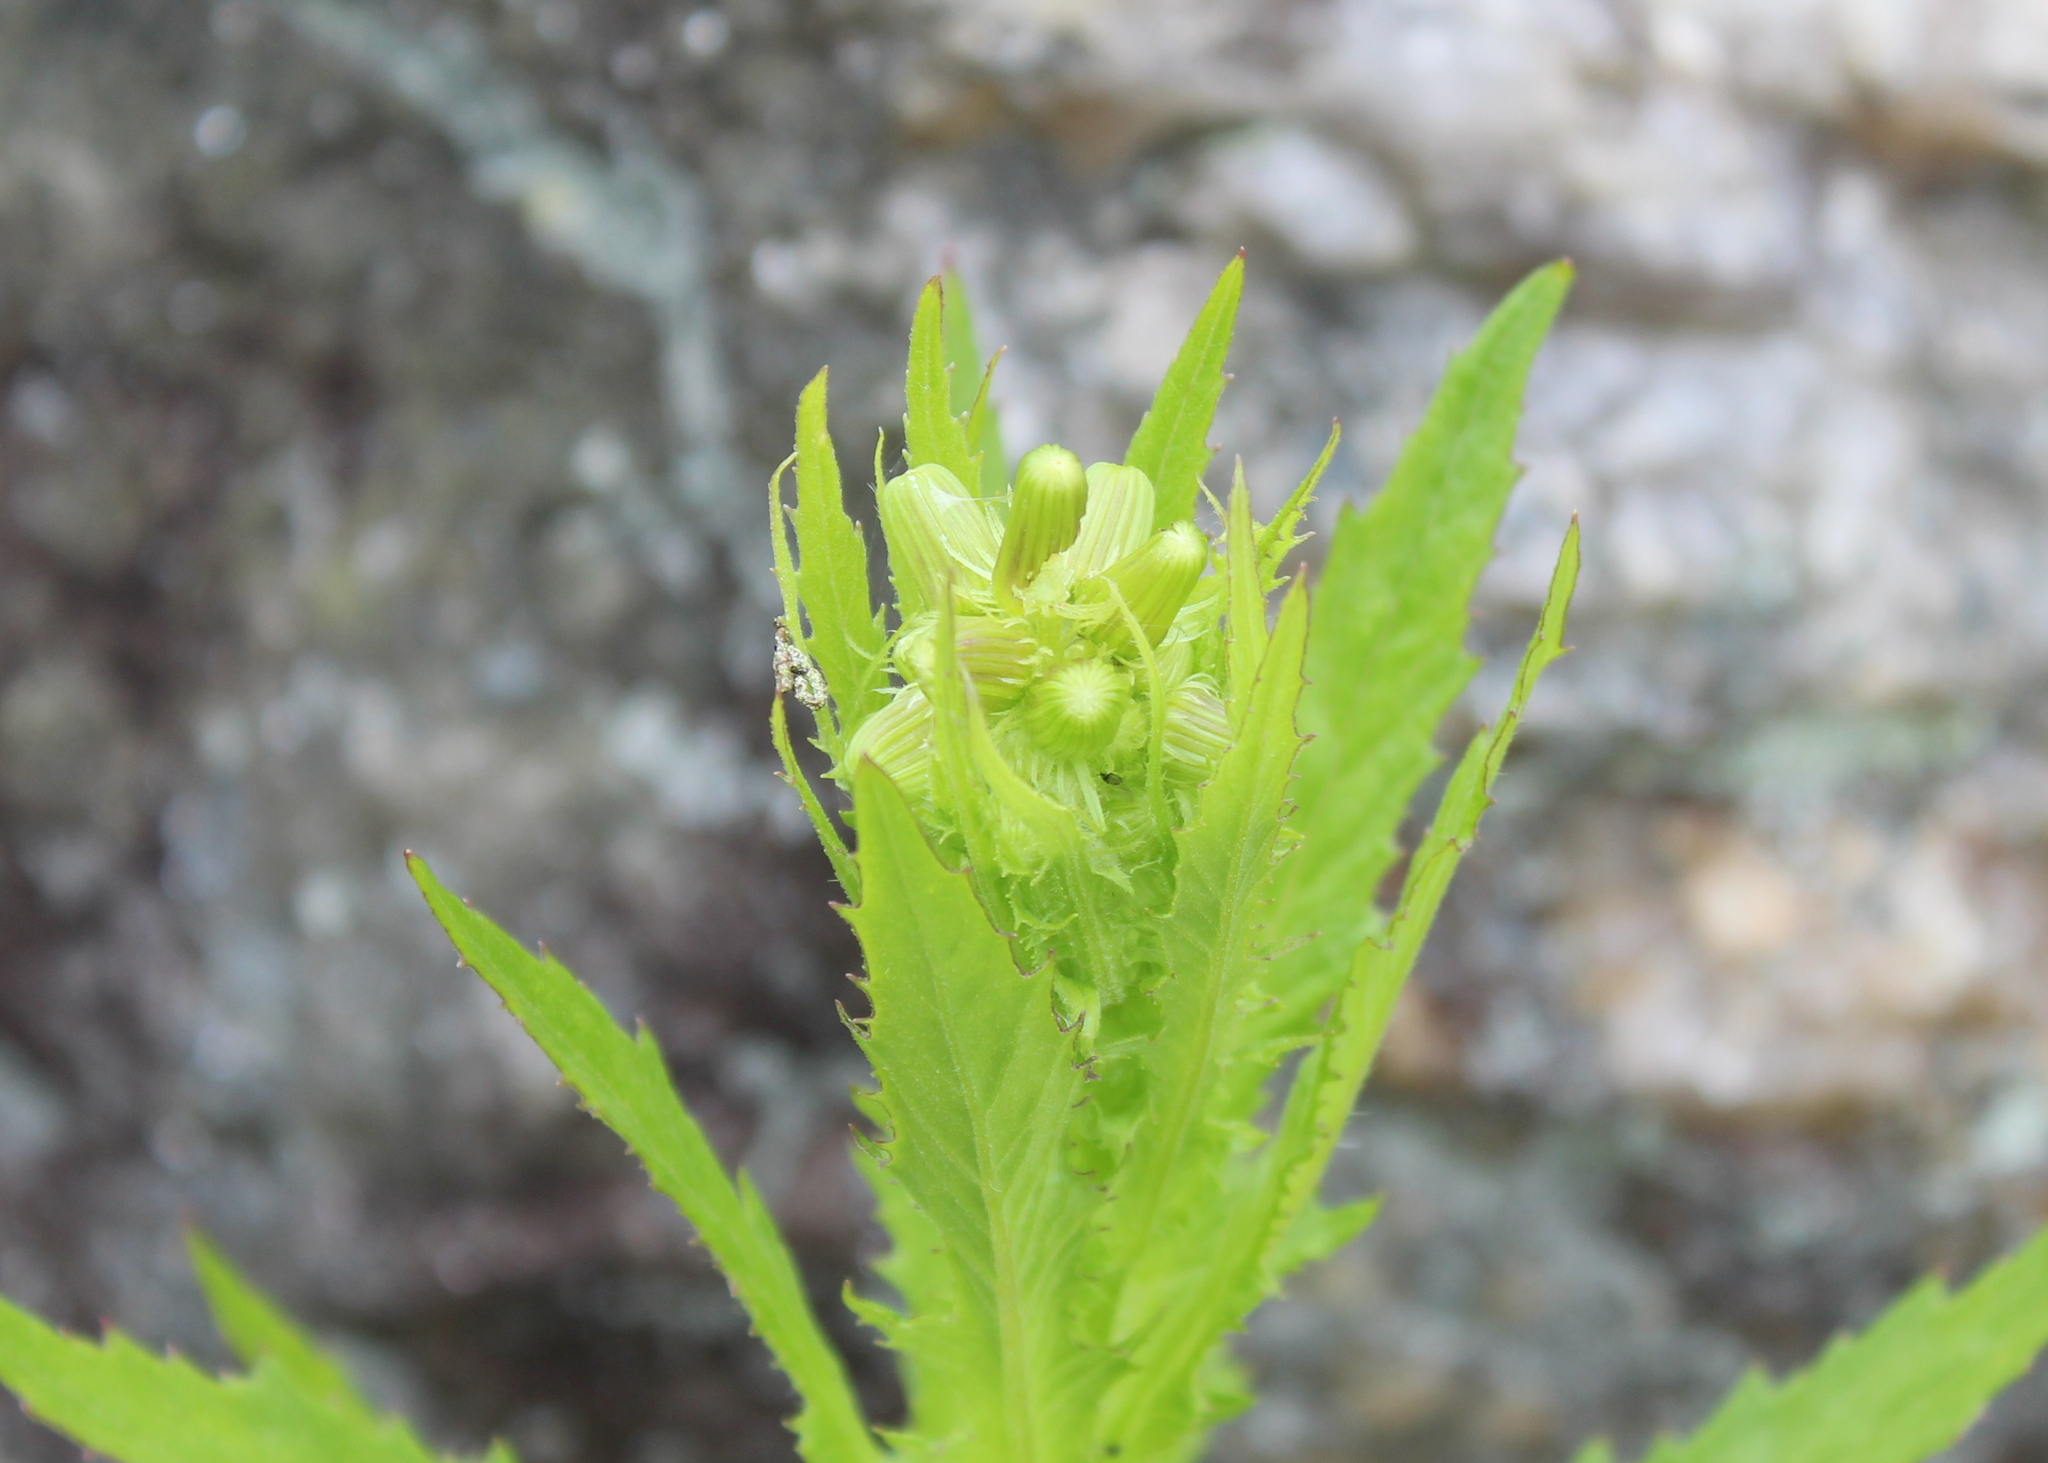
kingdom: Plantae
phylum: Tracheophyta
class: Magnoliopsida
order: Asterales
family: Asteraceae
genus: Erechtites
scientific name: Erechtites hieraciifolius
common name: American burnweed
